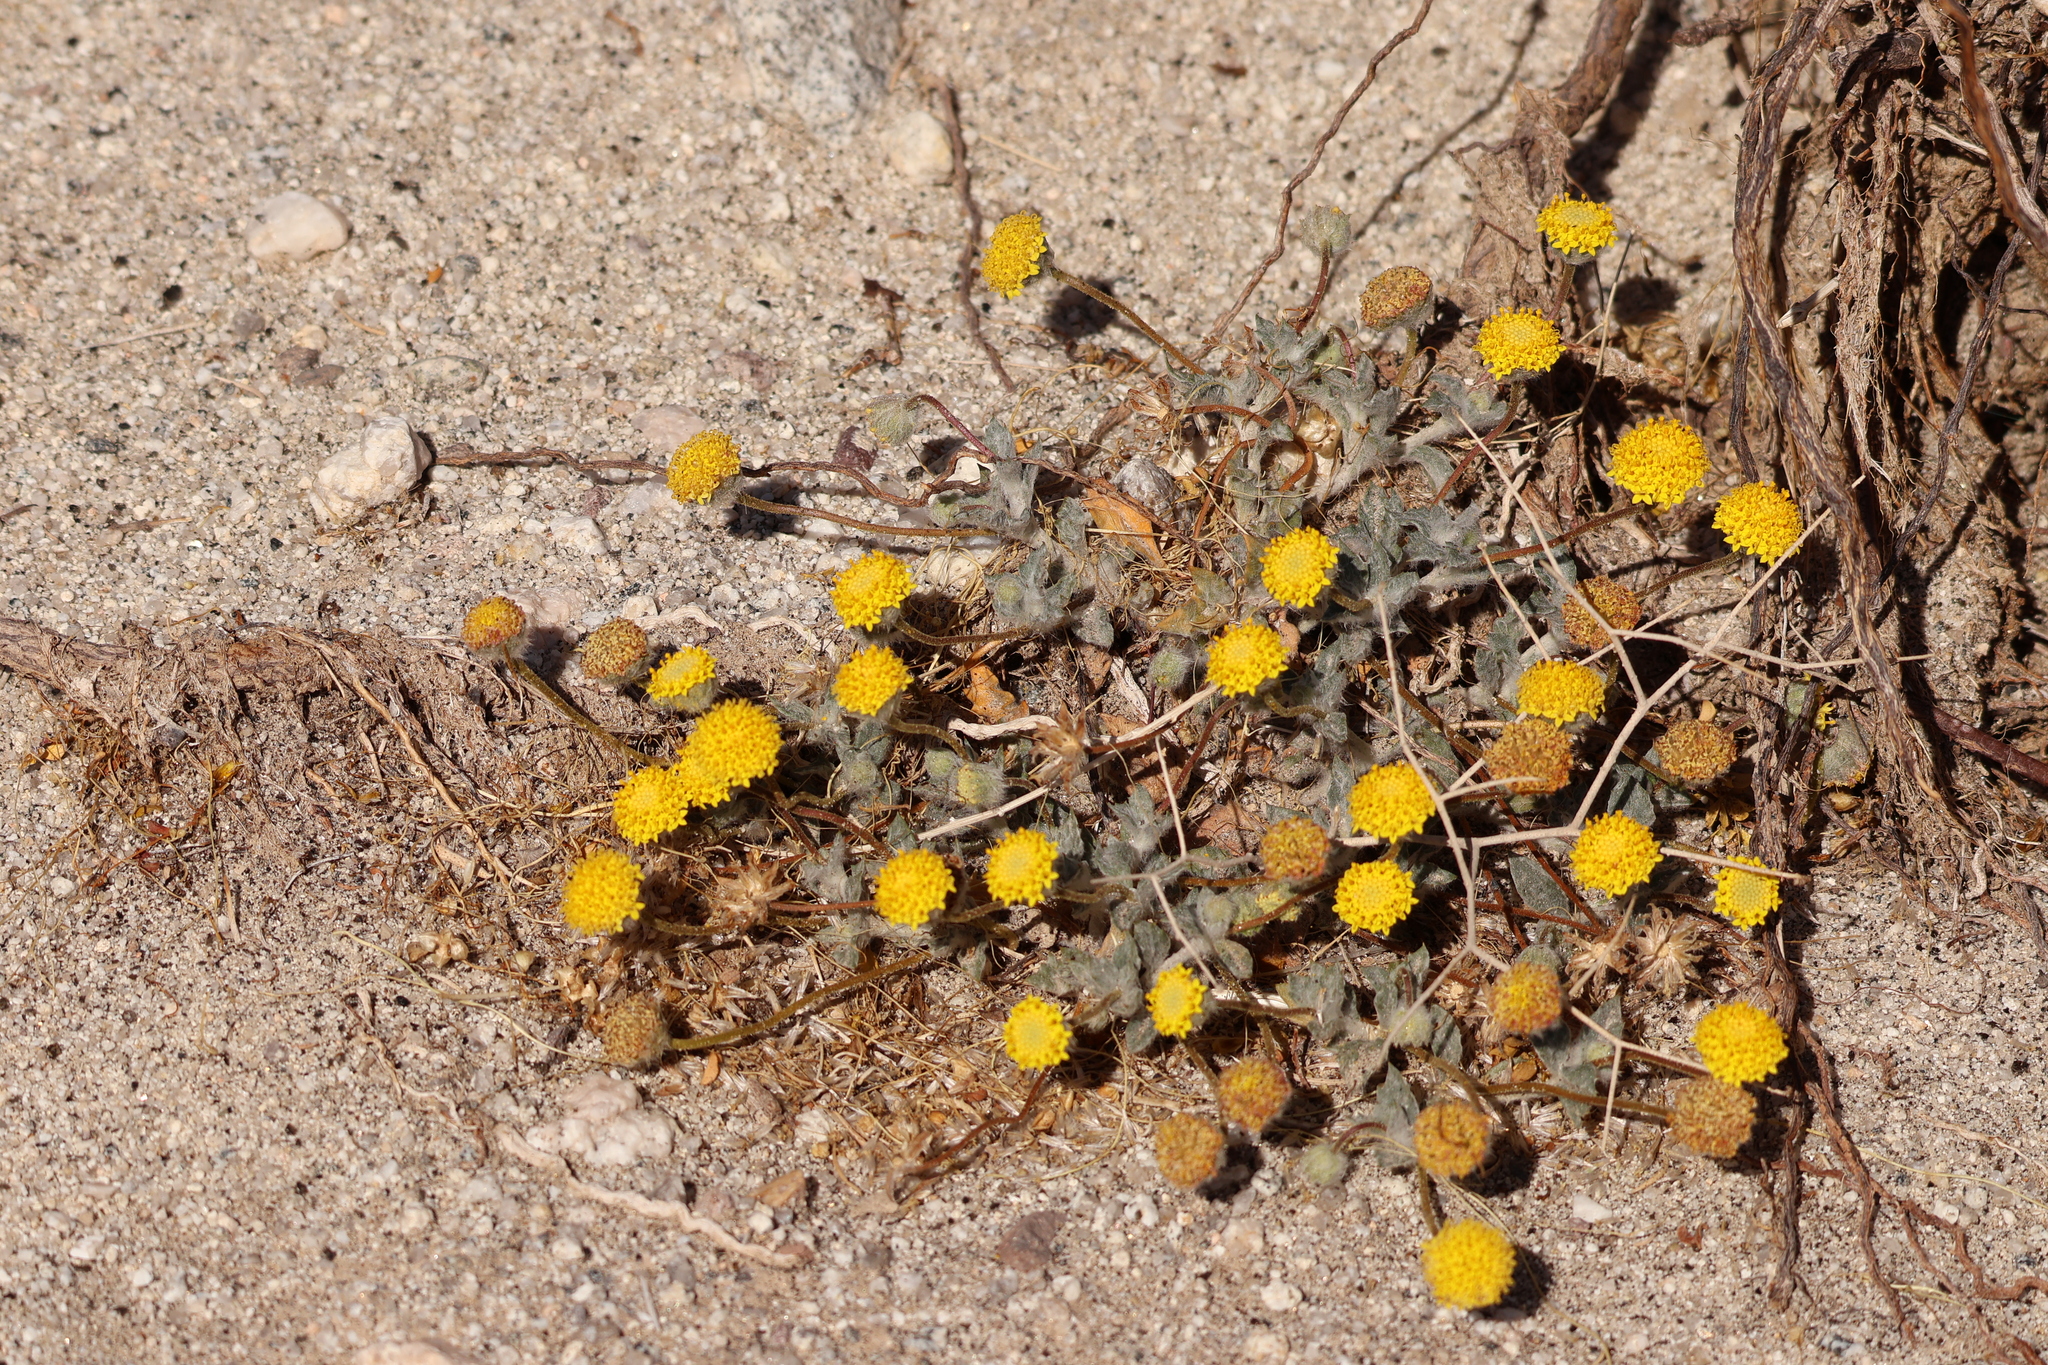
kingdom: Plantae
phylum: Tracheophyta
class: Magnoliopsida
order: Asterales
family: Asteraceae
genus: Trichoptilium
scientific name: Trichoptilium incisum
